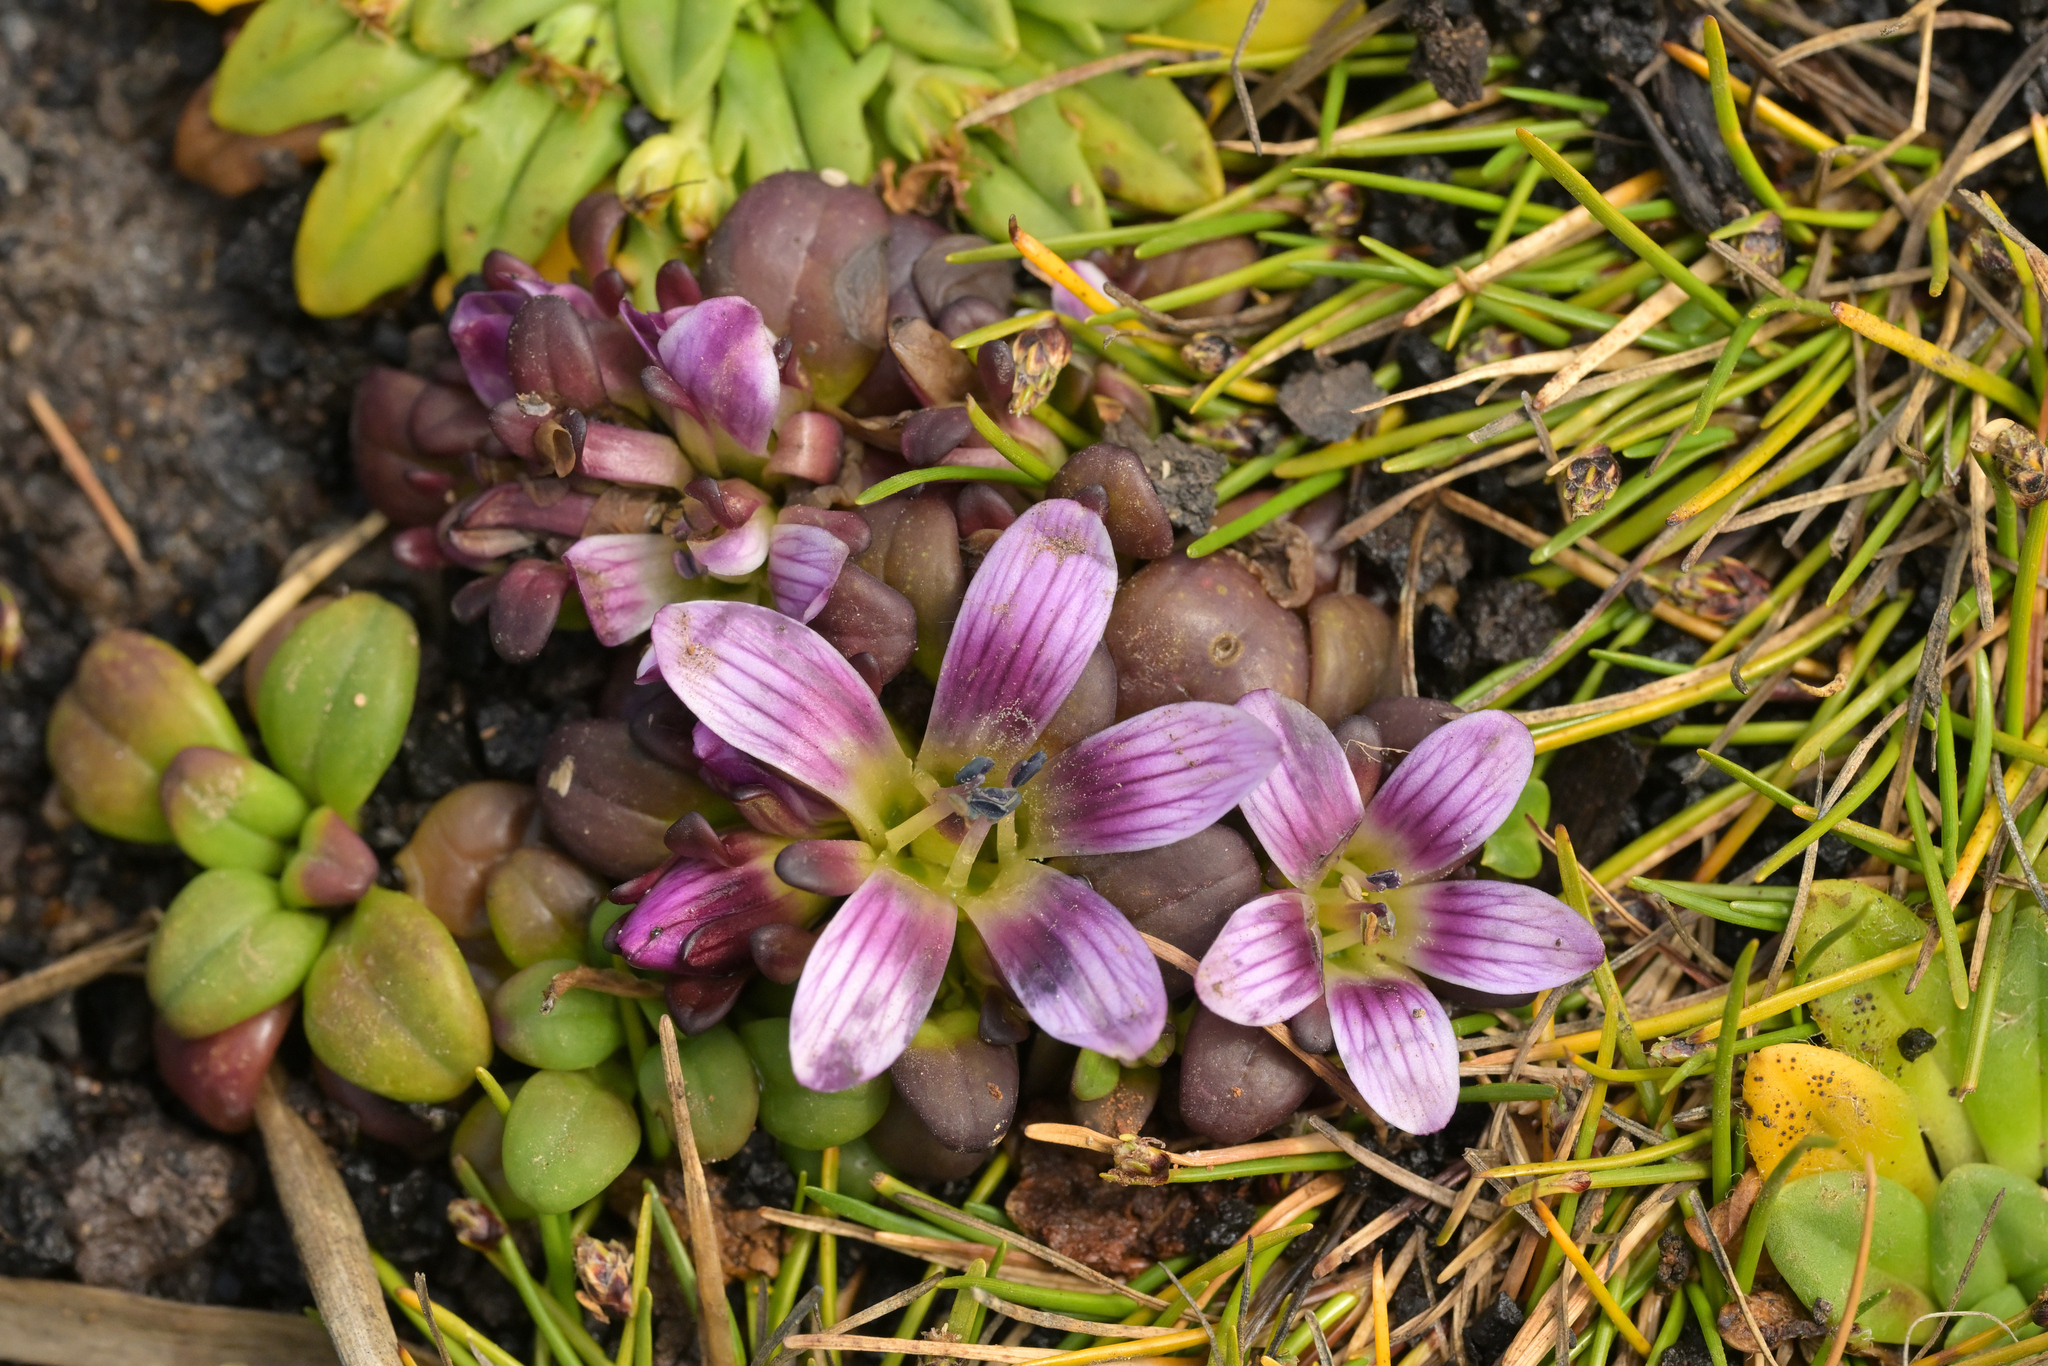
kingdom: Plantae
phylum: Tracheophyta
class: Magnoliopsida
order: Gentianales
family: Gentianaceae
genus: Gentianella
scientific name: Gentianella cerina
